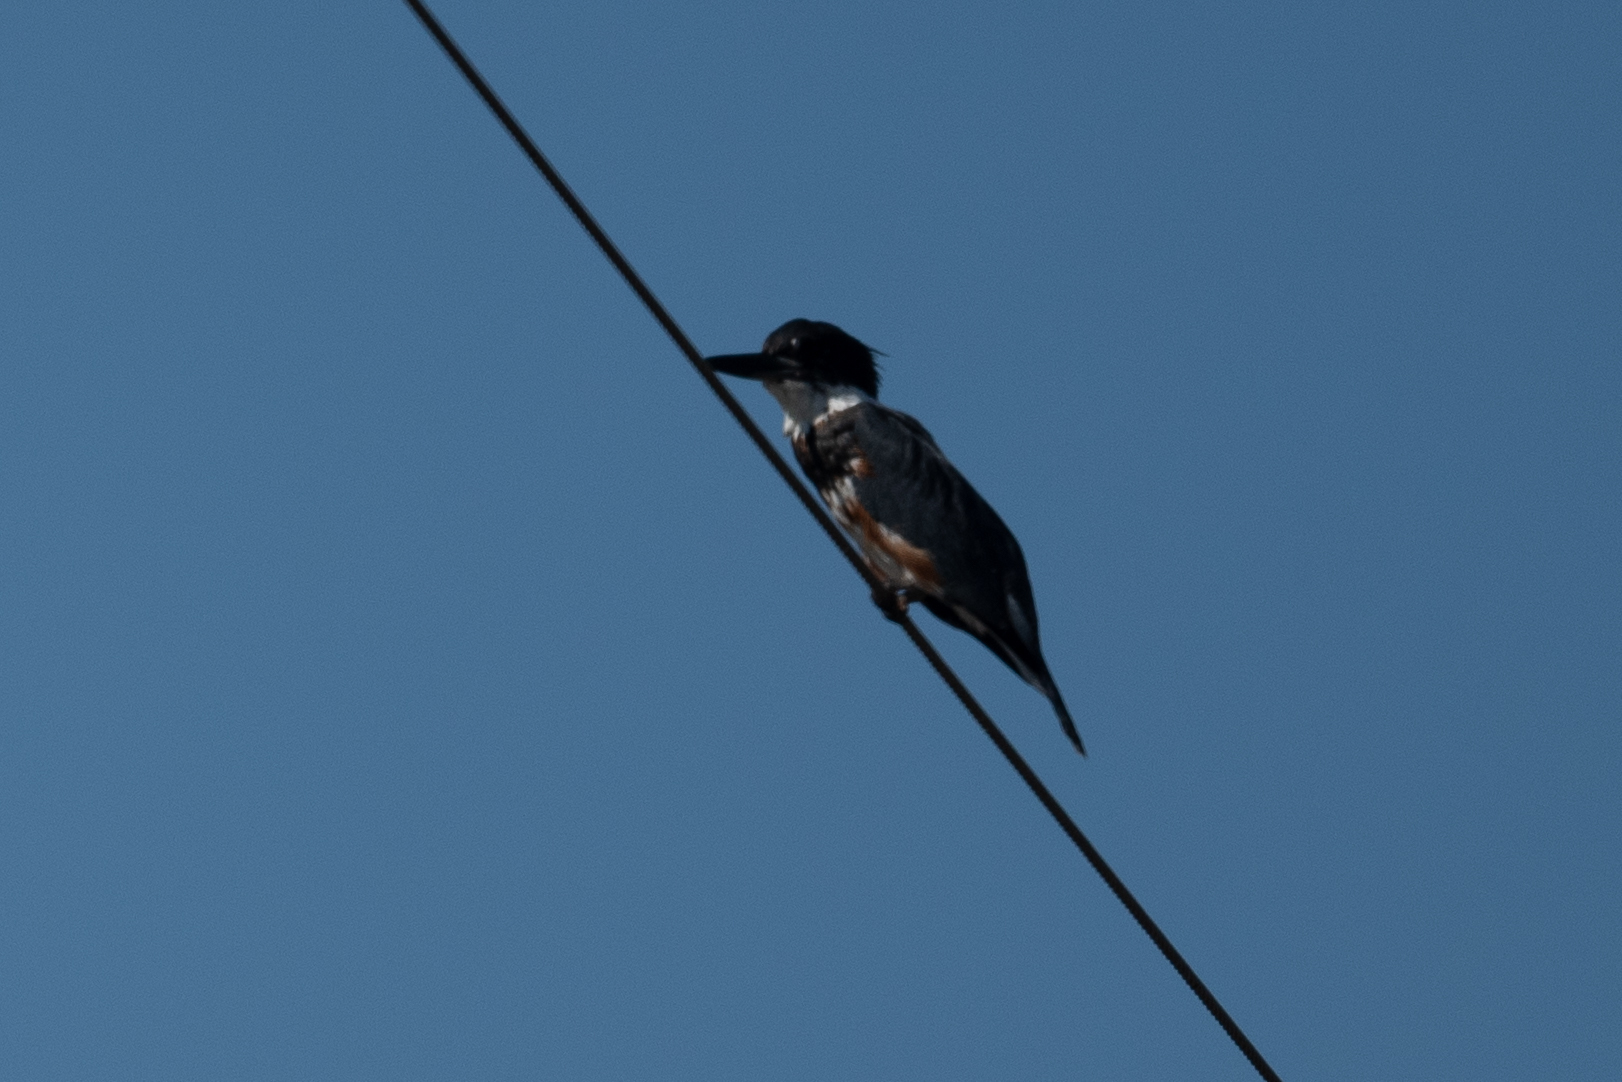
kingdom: Animalia
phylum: Chordata
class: Aves
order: Coraciiformes
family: Alcedinidae
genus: Megaceryle
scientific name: Megaceryle alcyon
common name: Belted kingfisher
